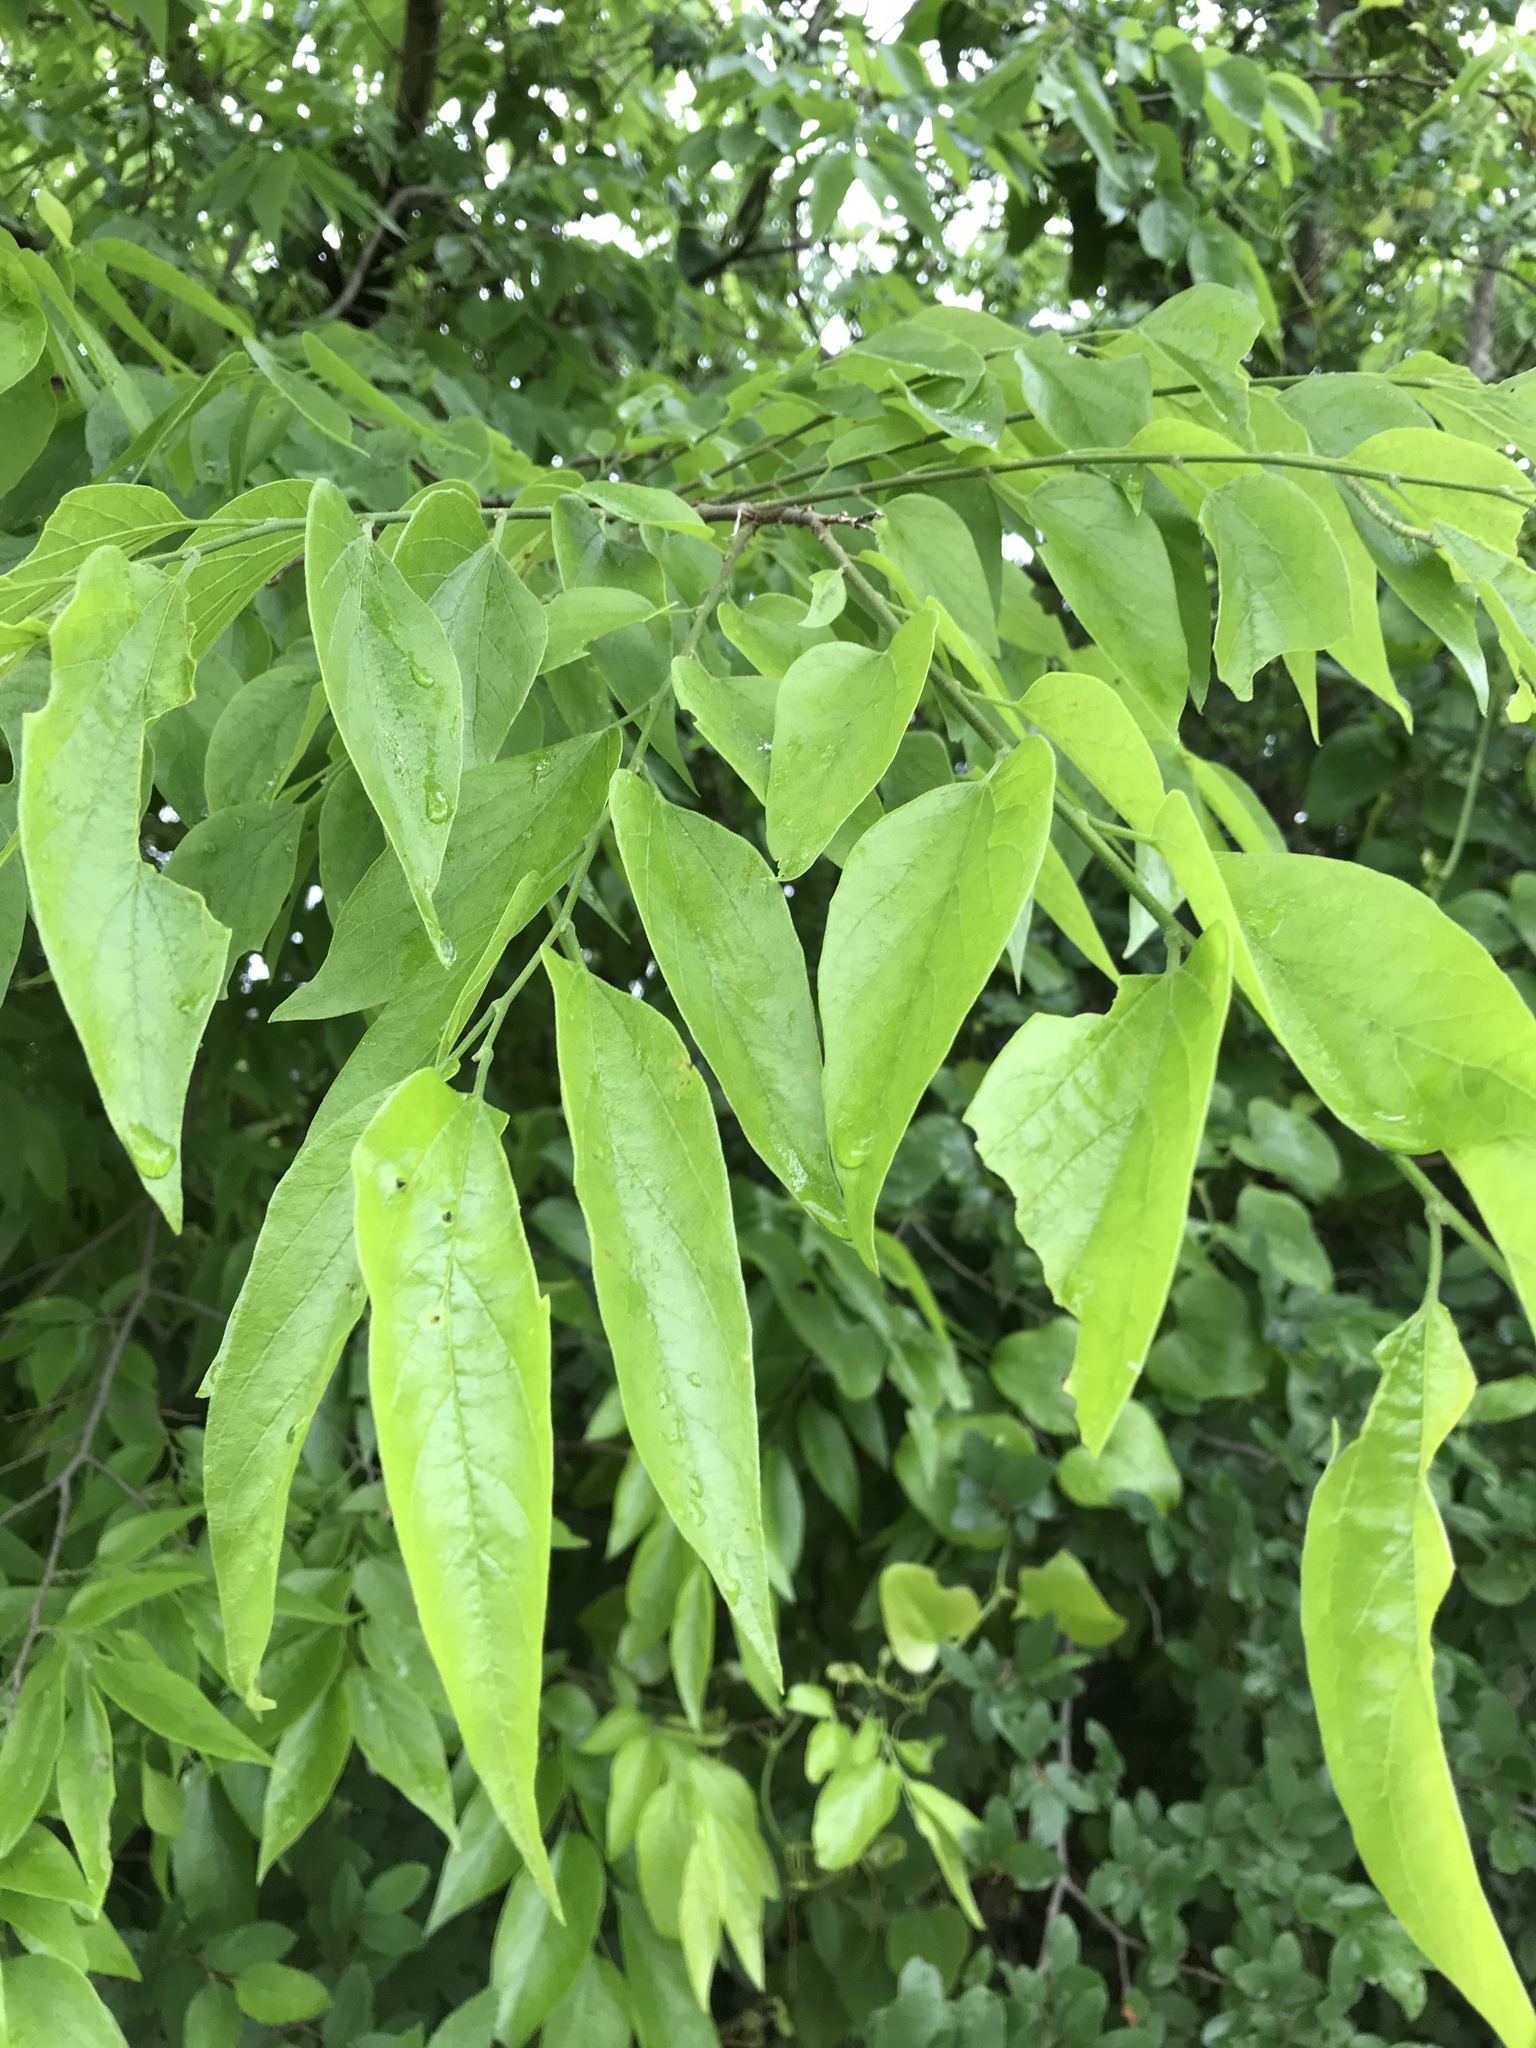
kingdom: Plantae
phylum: Tracheophyta
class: Magnoliopsida
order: Rosales
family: Cannabaceae
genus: Celtis
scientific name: Celtis laevigata
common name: Sugarberry
